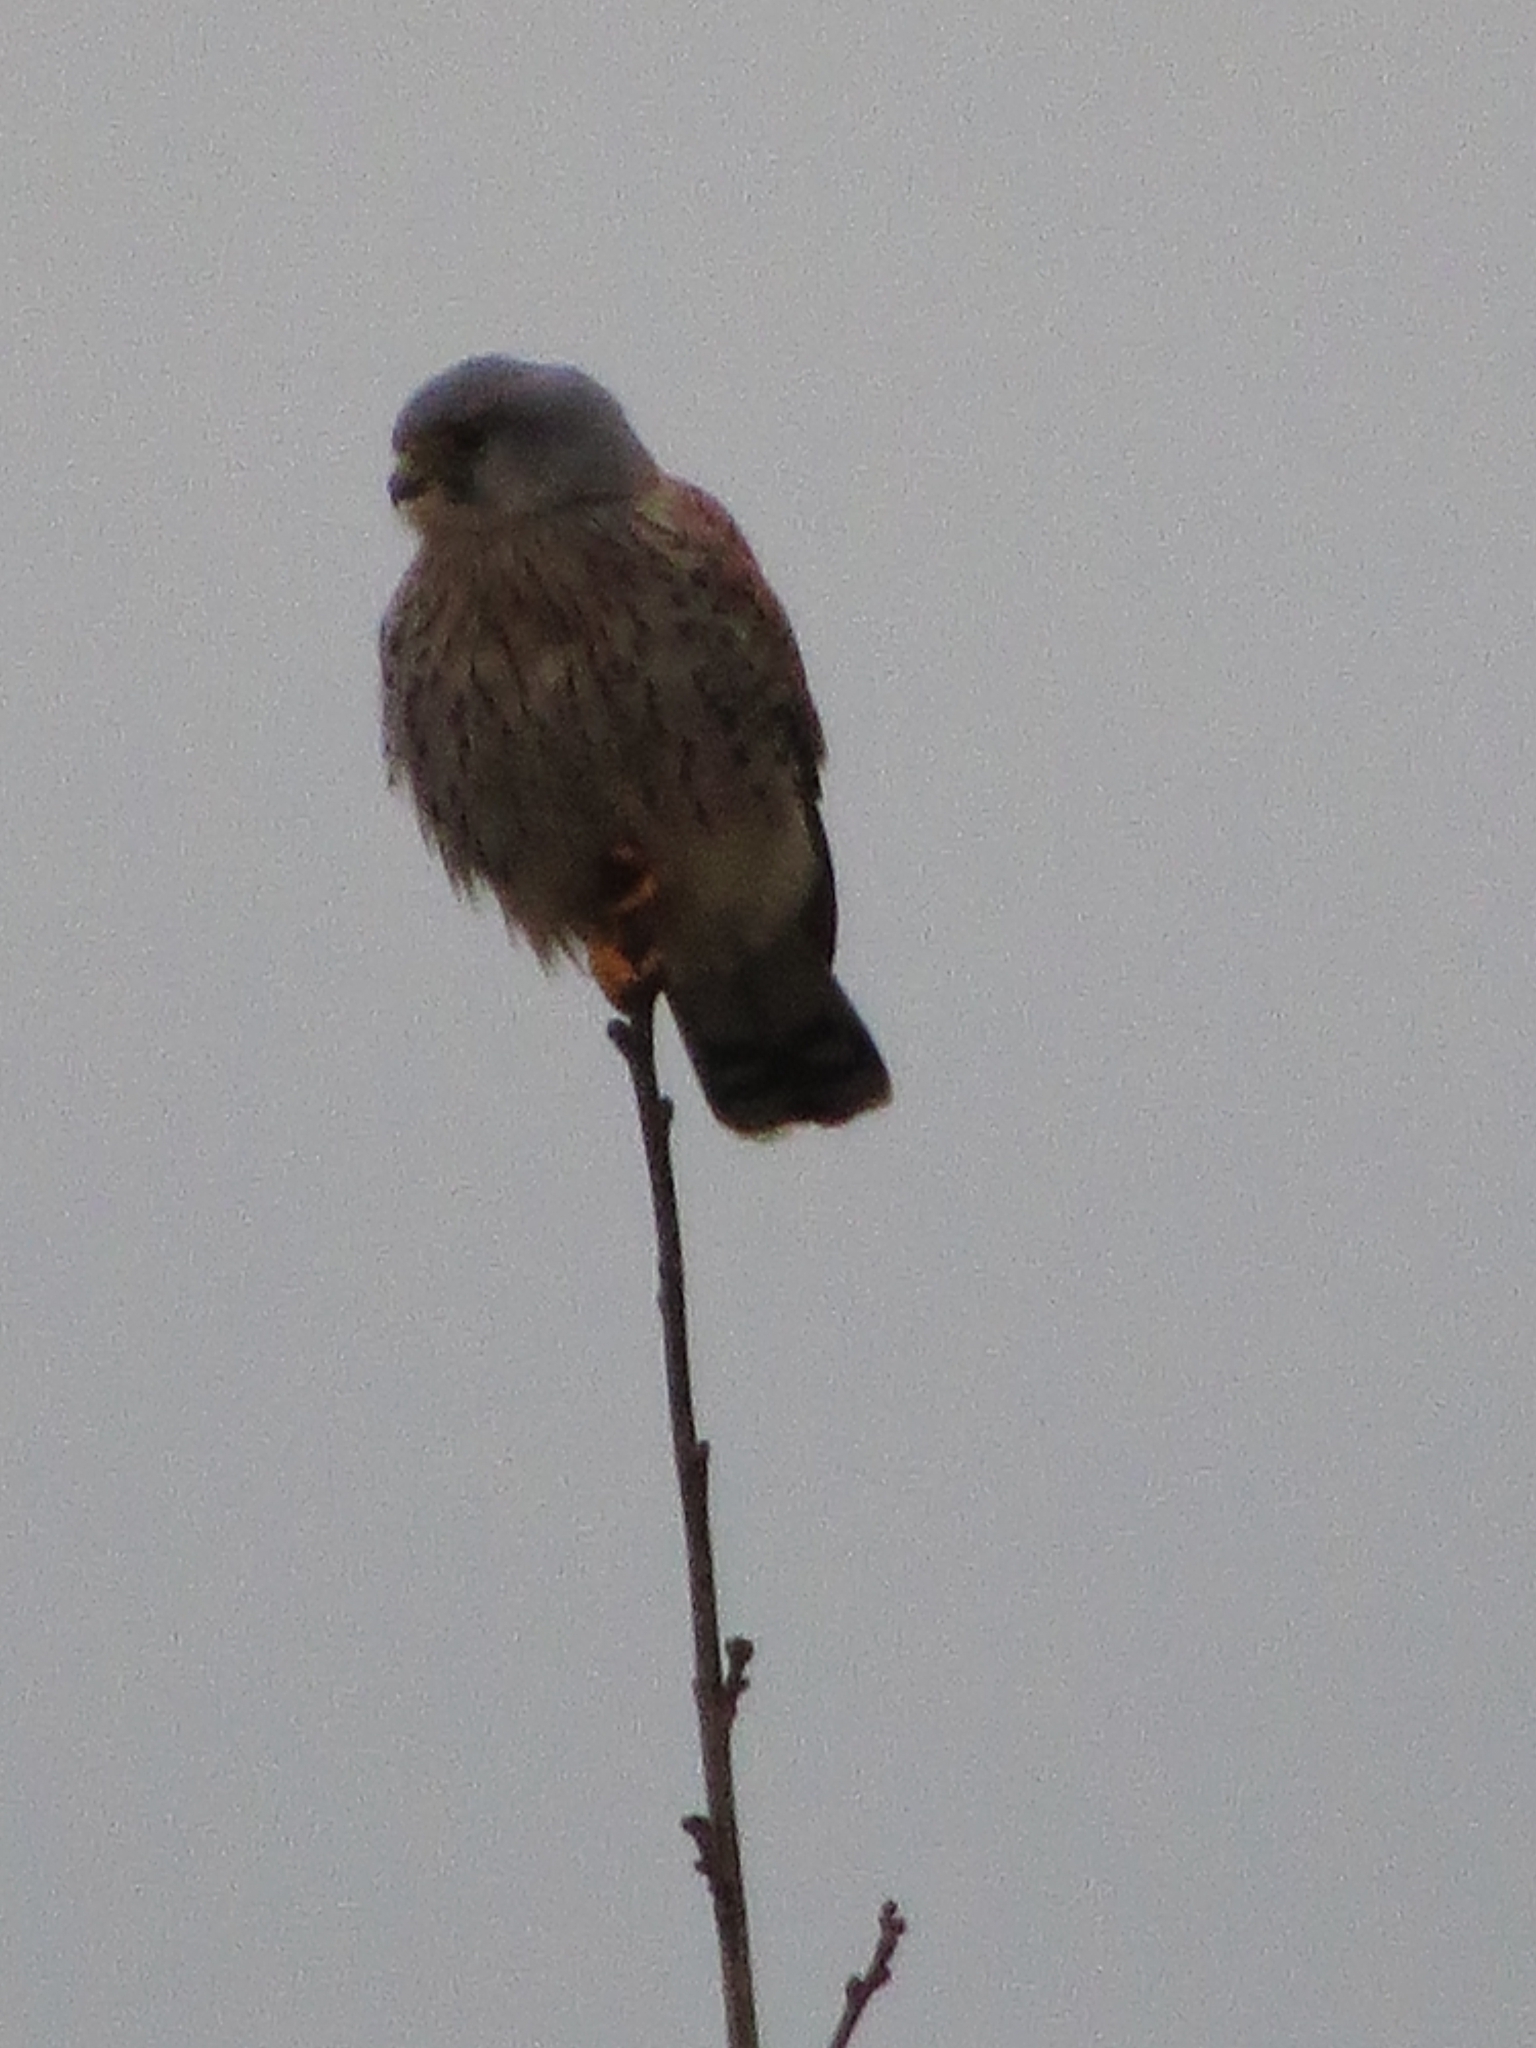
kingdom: Animalia
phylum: Chordata
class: Aves
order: Falconiformes
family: Falconidae
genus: Falco
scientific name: Falco tinnunculus
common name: Common kestrel
